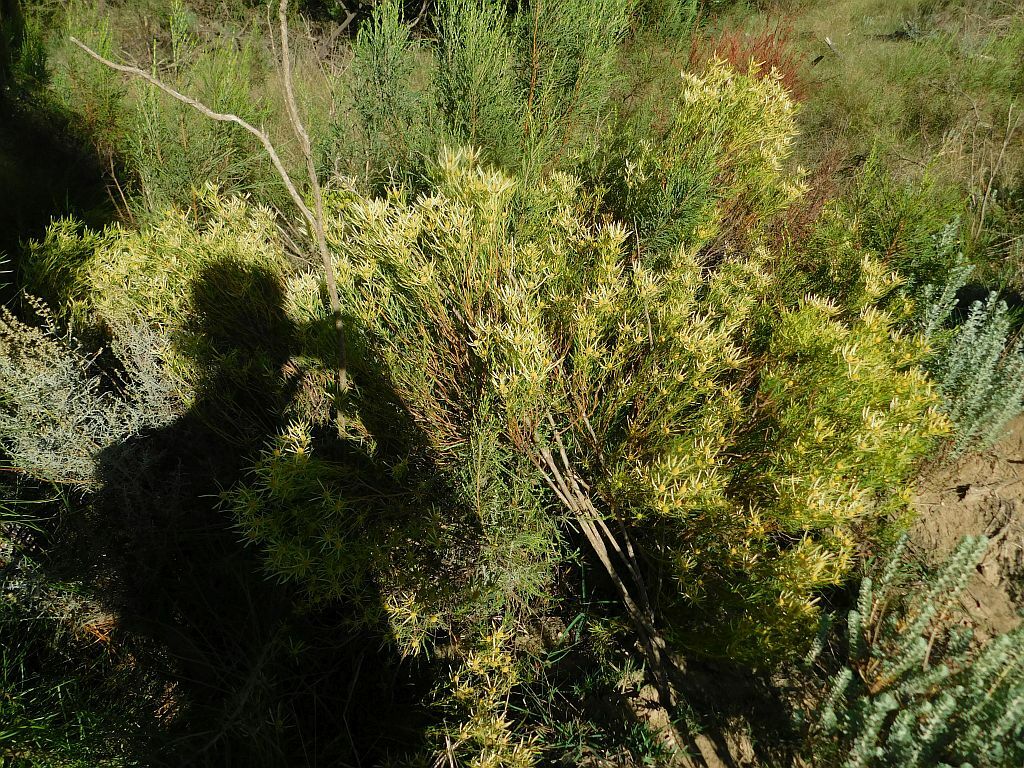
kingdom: Plantae
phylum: Tracheophyta
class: Magnoliopsida
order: Proteales
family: Proteaceae
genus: Leucadendron
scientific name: Leucadendron salignum
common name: Common sunshine conebush
